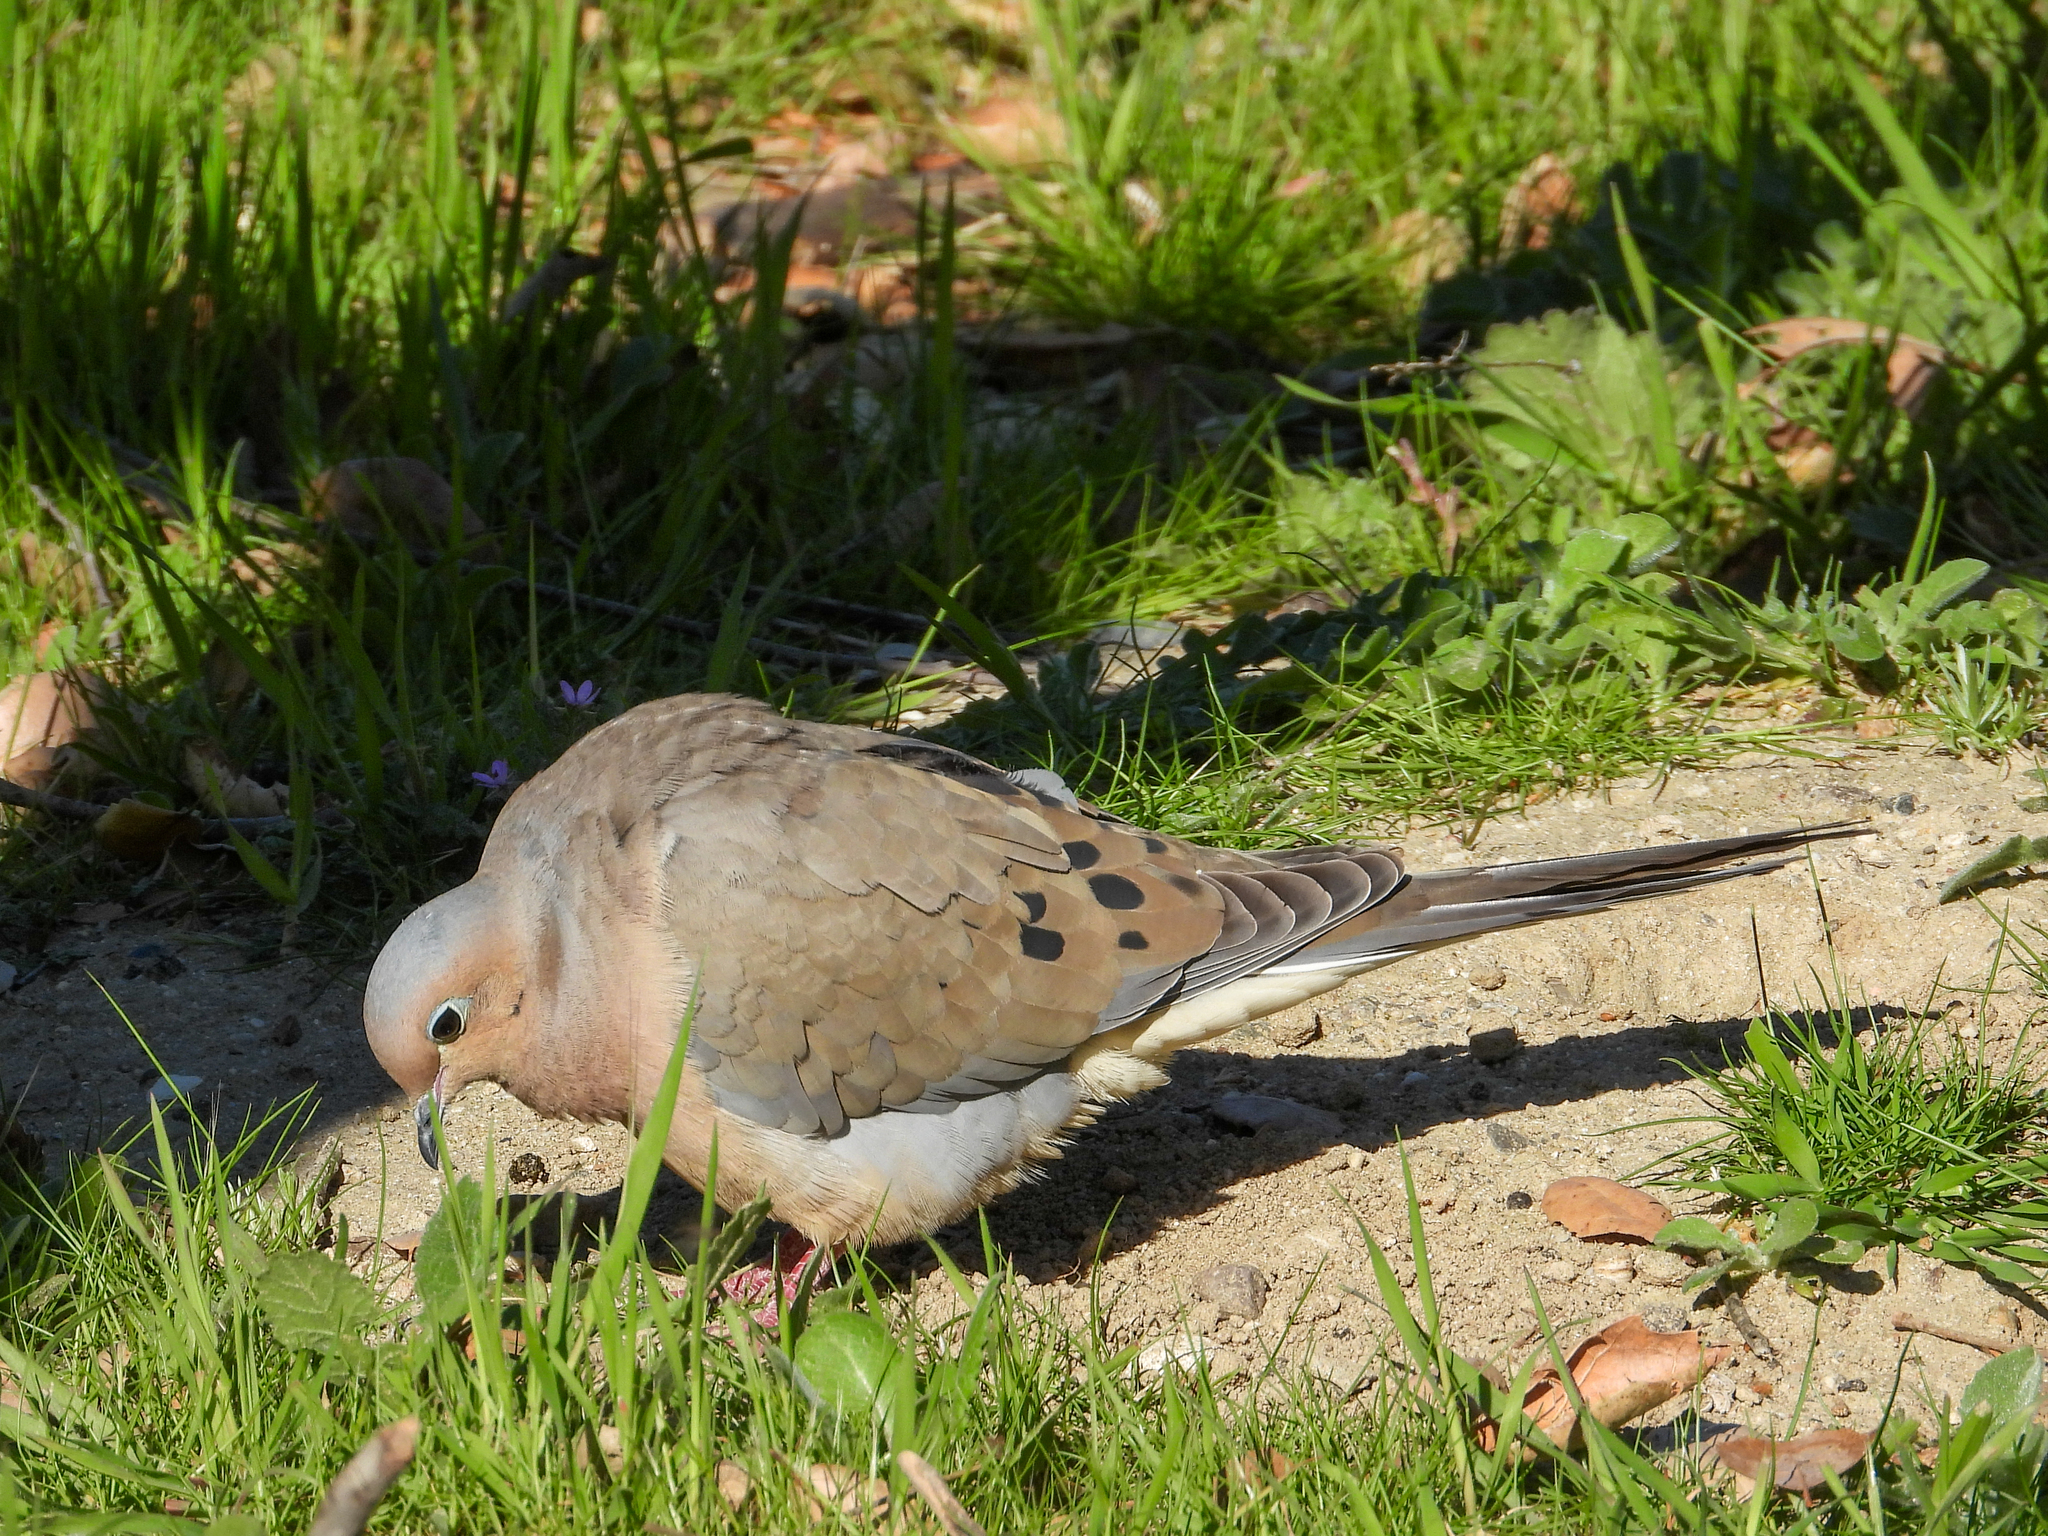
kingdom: Animalia
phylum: Chordata
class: Aves
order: Columbiformes
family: Columbidae
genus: Zenaida
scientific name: Zenaida macroura
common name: Mourning dove
